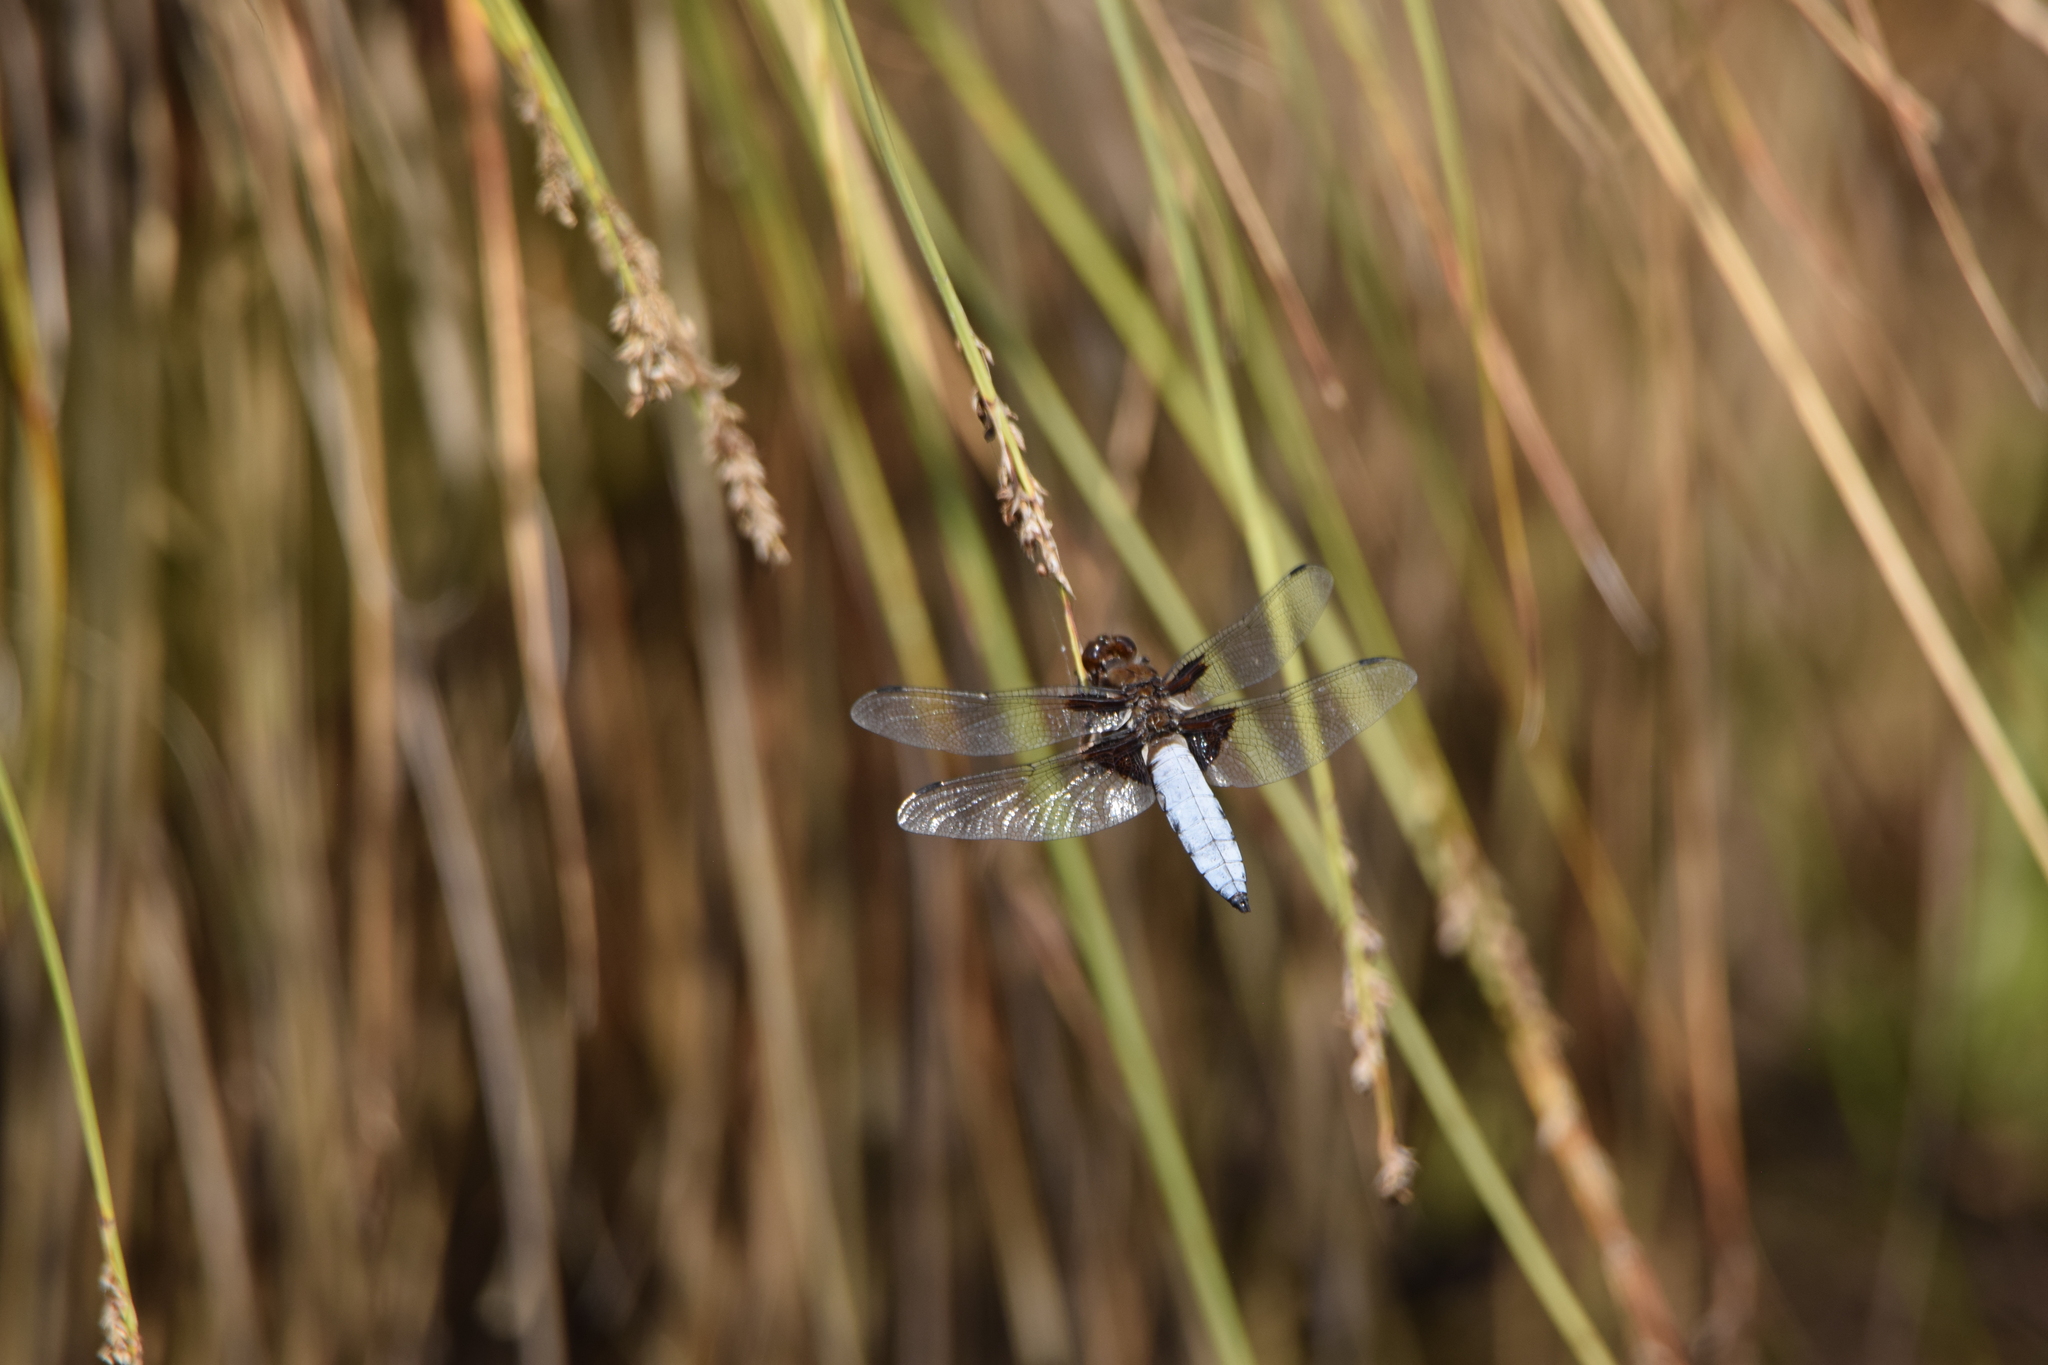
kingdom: Animalia
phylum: Arthropoda
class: Insecta
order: Odonata
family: Libellulidae
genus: Libellula
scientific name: Libellula depressa
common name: Broad-bodied chaser
